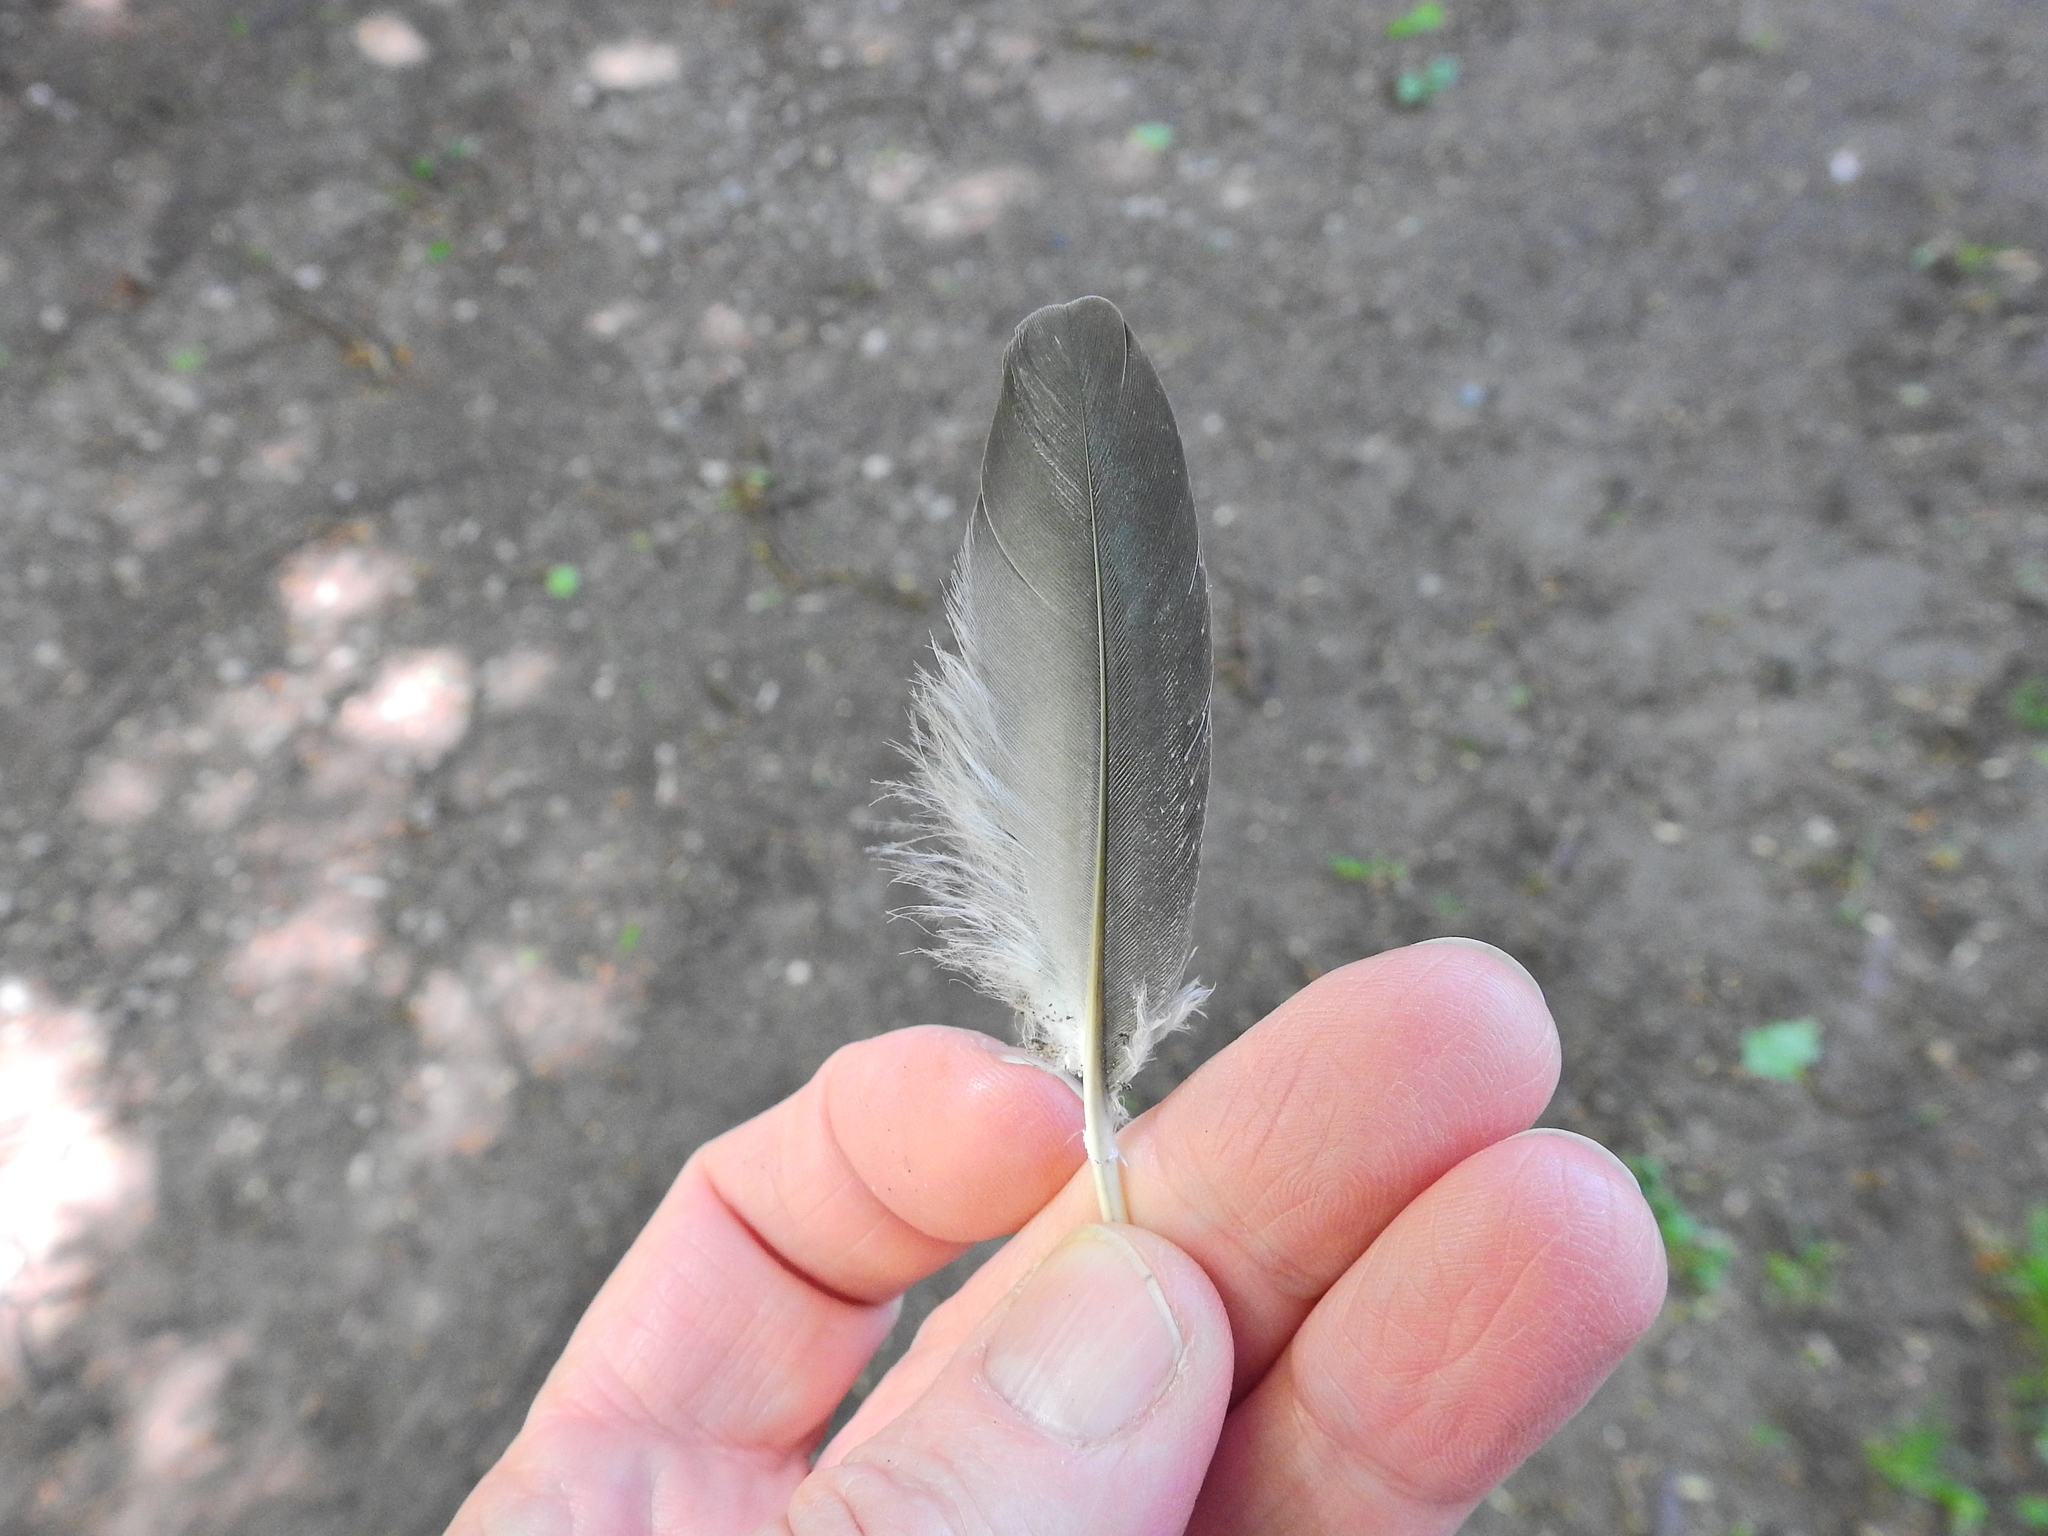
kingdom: Animalia
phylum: Chordata
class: Aves
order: Columbiformes
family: Columbidae
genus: Columba
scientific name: Columba palumbus
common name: Common wood pigeon
